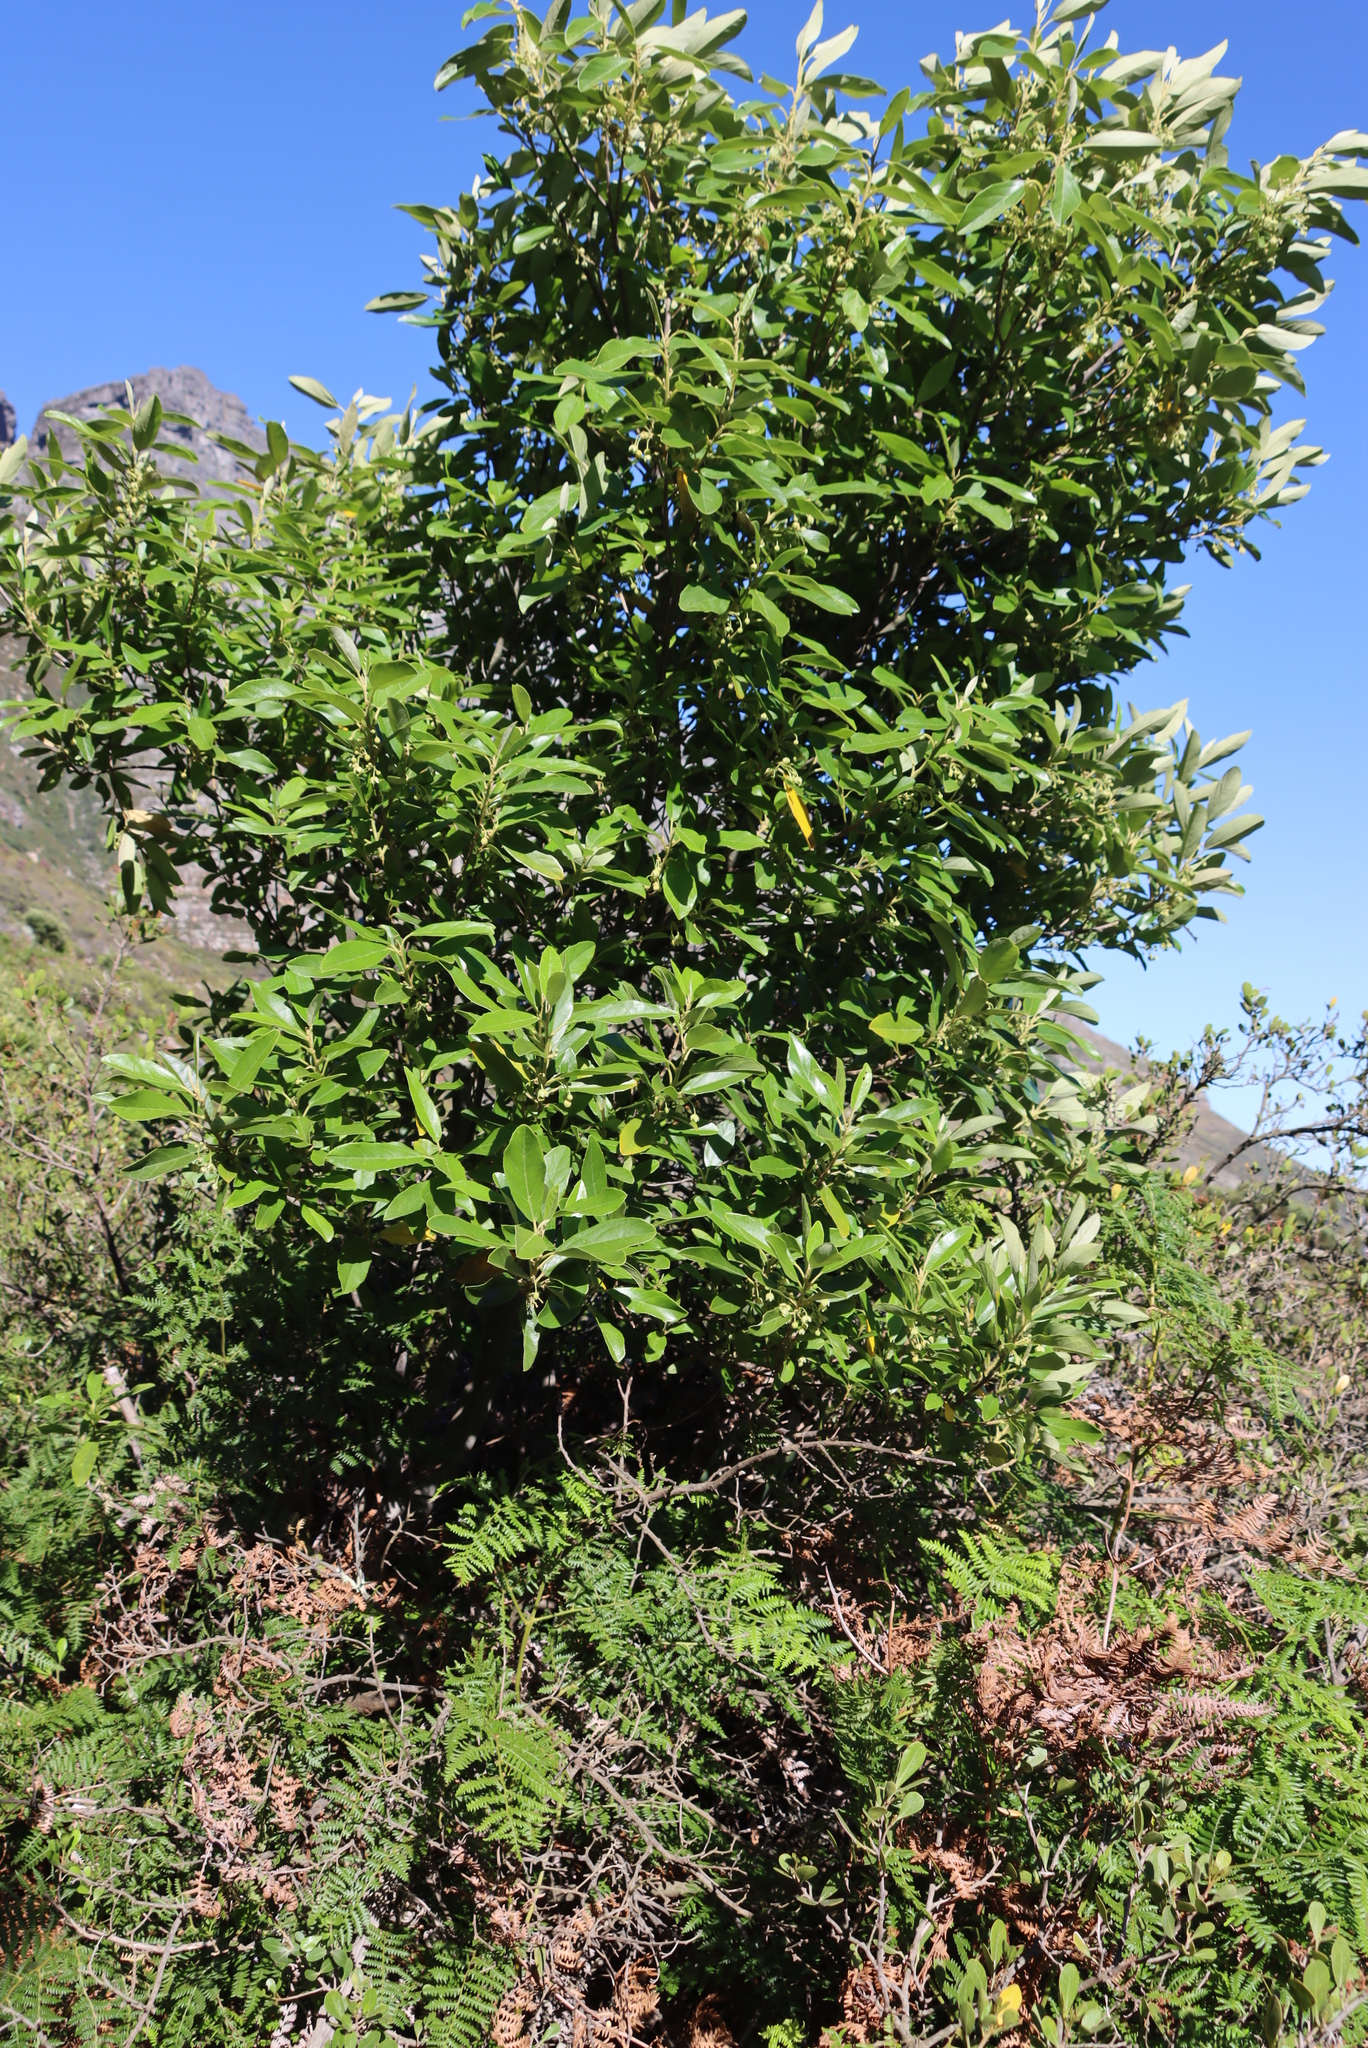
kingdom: Plantae
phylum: Tracheophyta
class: Magnoliopsida
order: Malpighiales
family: Achariaceae
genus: Kiggelaria
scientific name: Kiggelaria africana
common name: Wild peach
